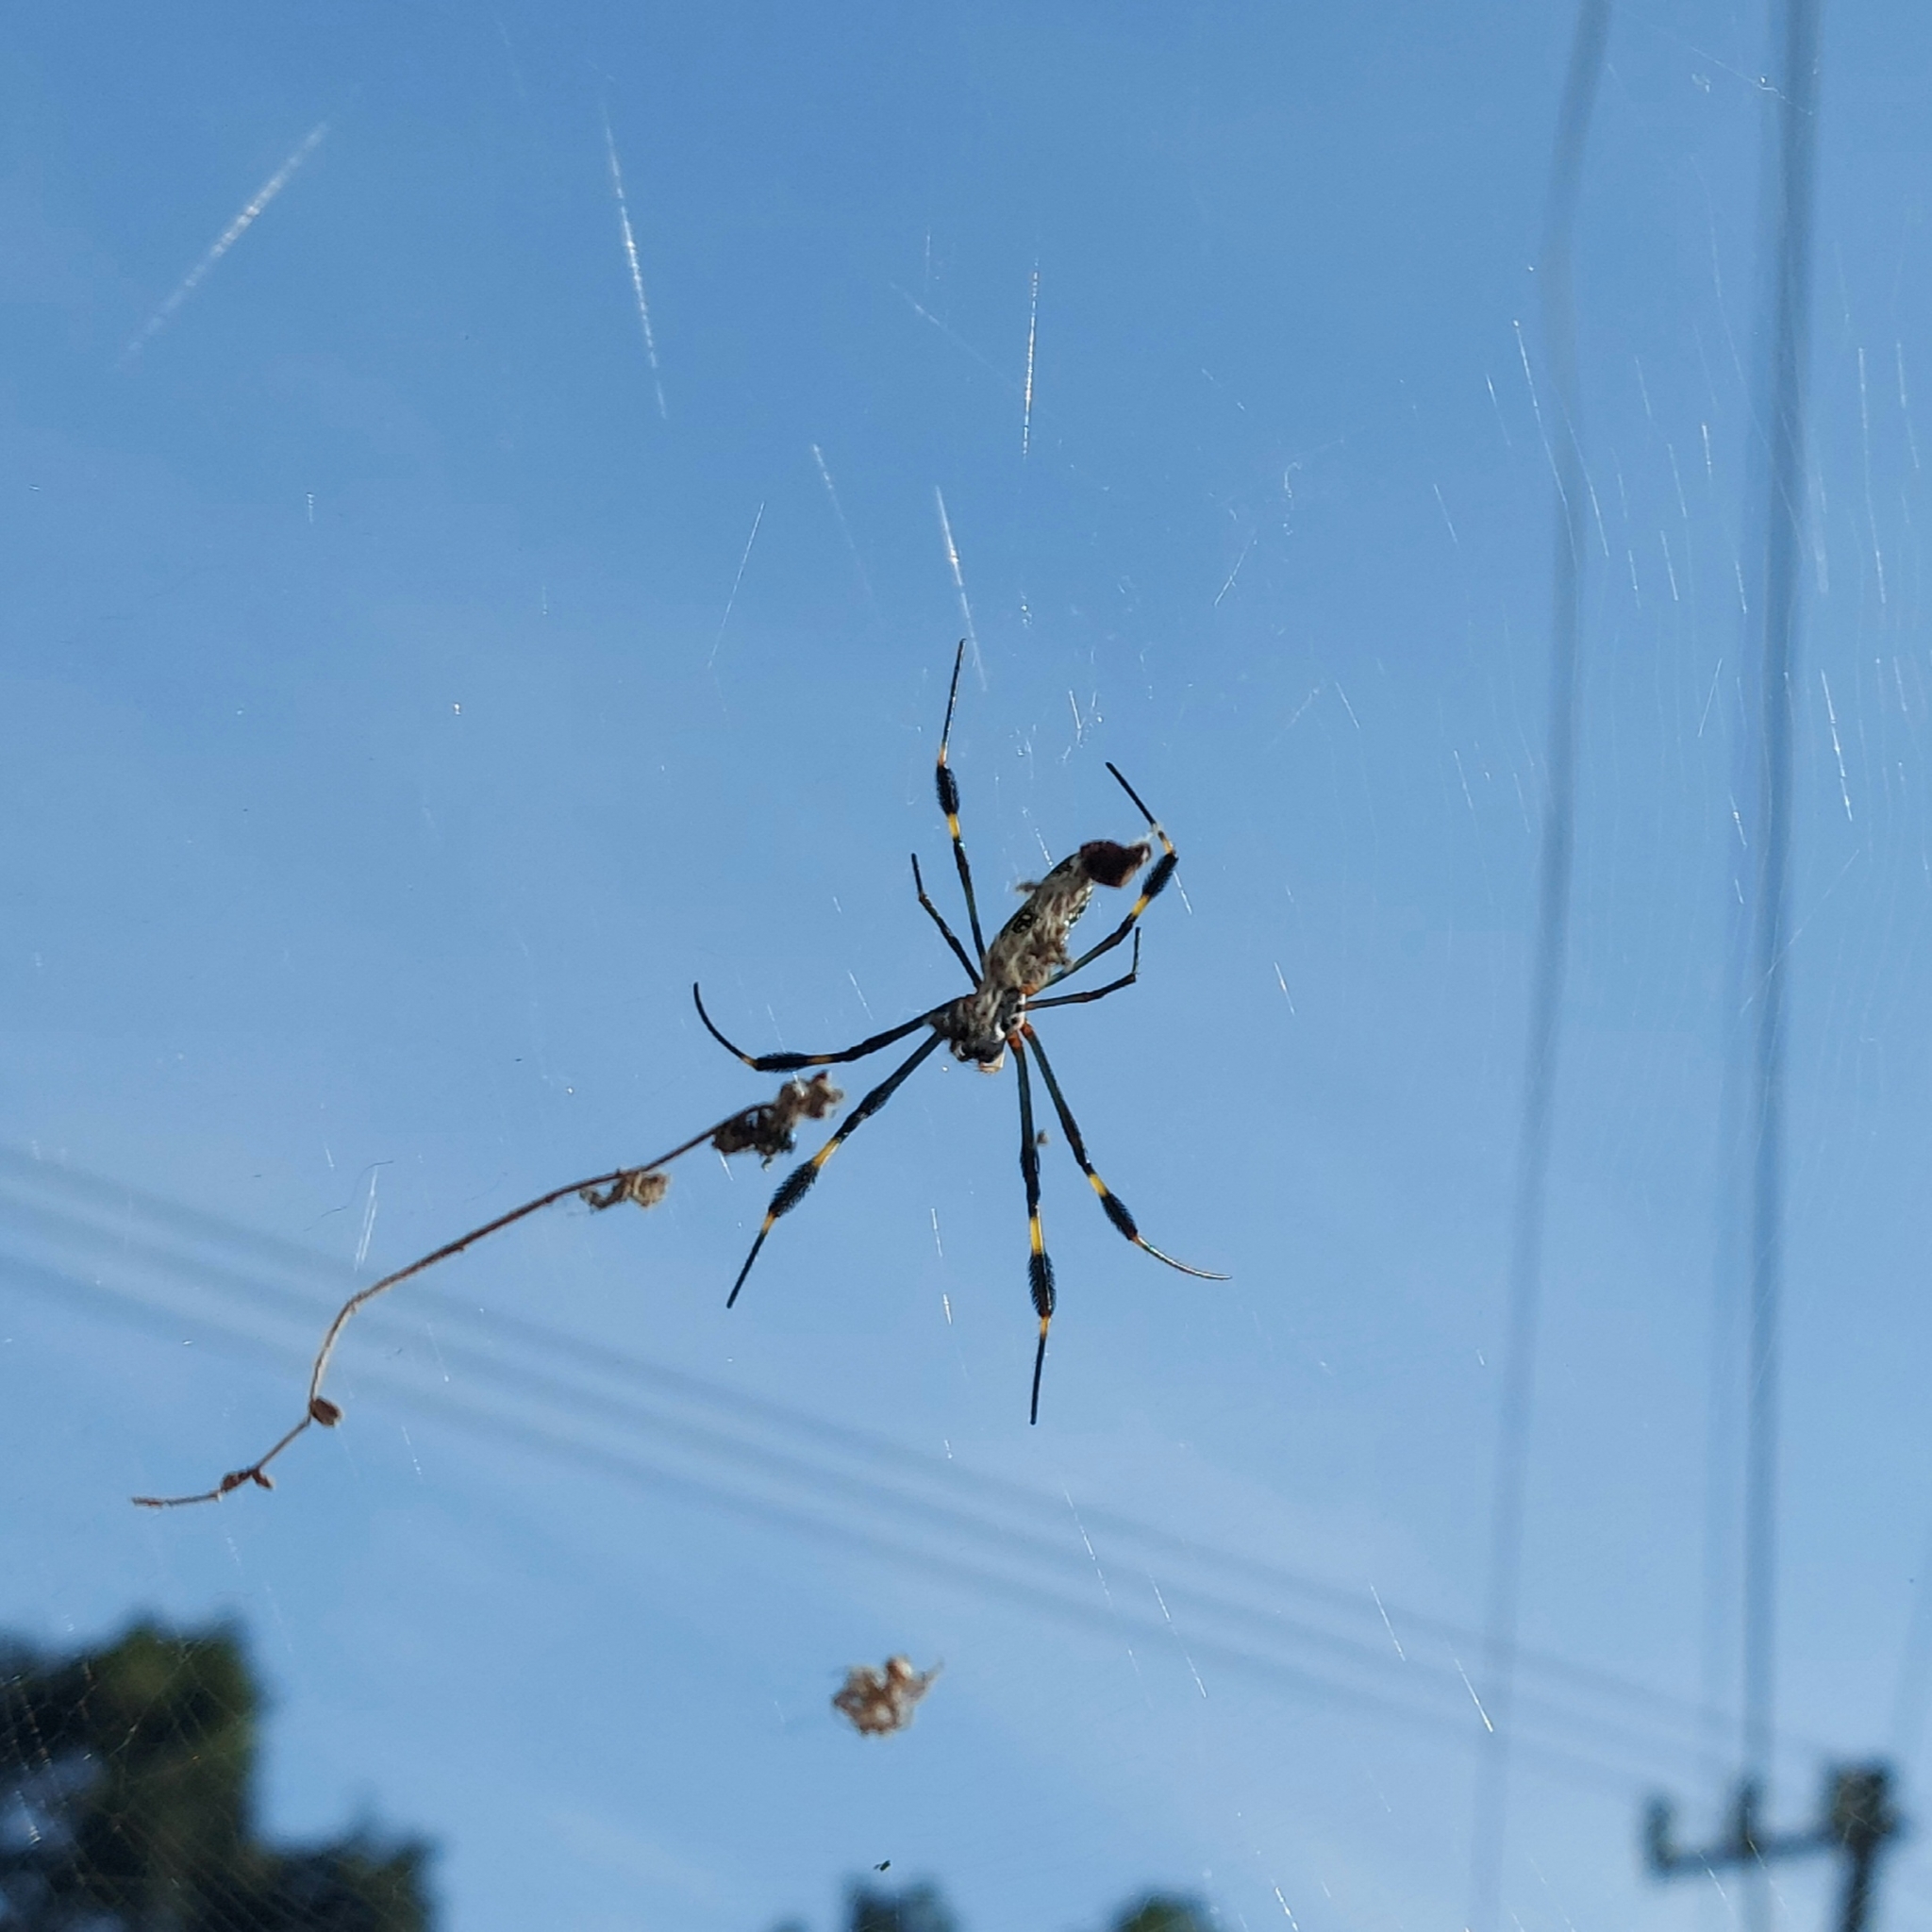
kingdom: Animalia
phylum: Arthropoda
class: Arachnida
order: Araneae
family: Araneidae
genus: Trichonephila
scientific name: Trichonephila clavipes
